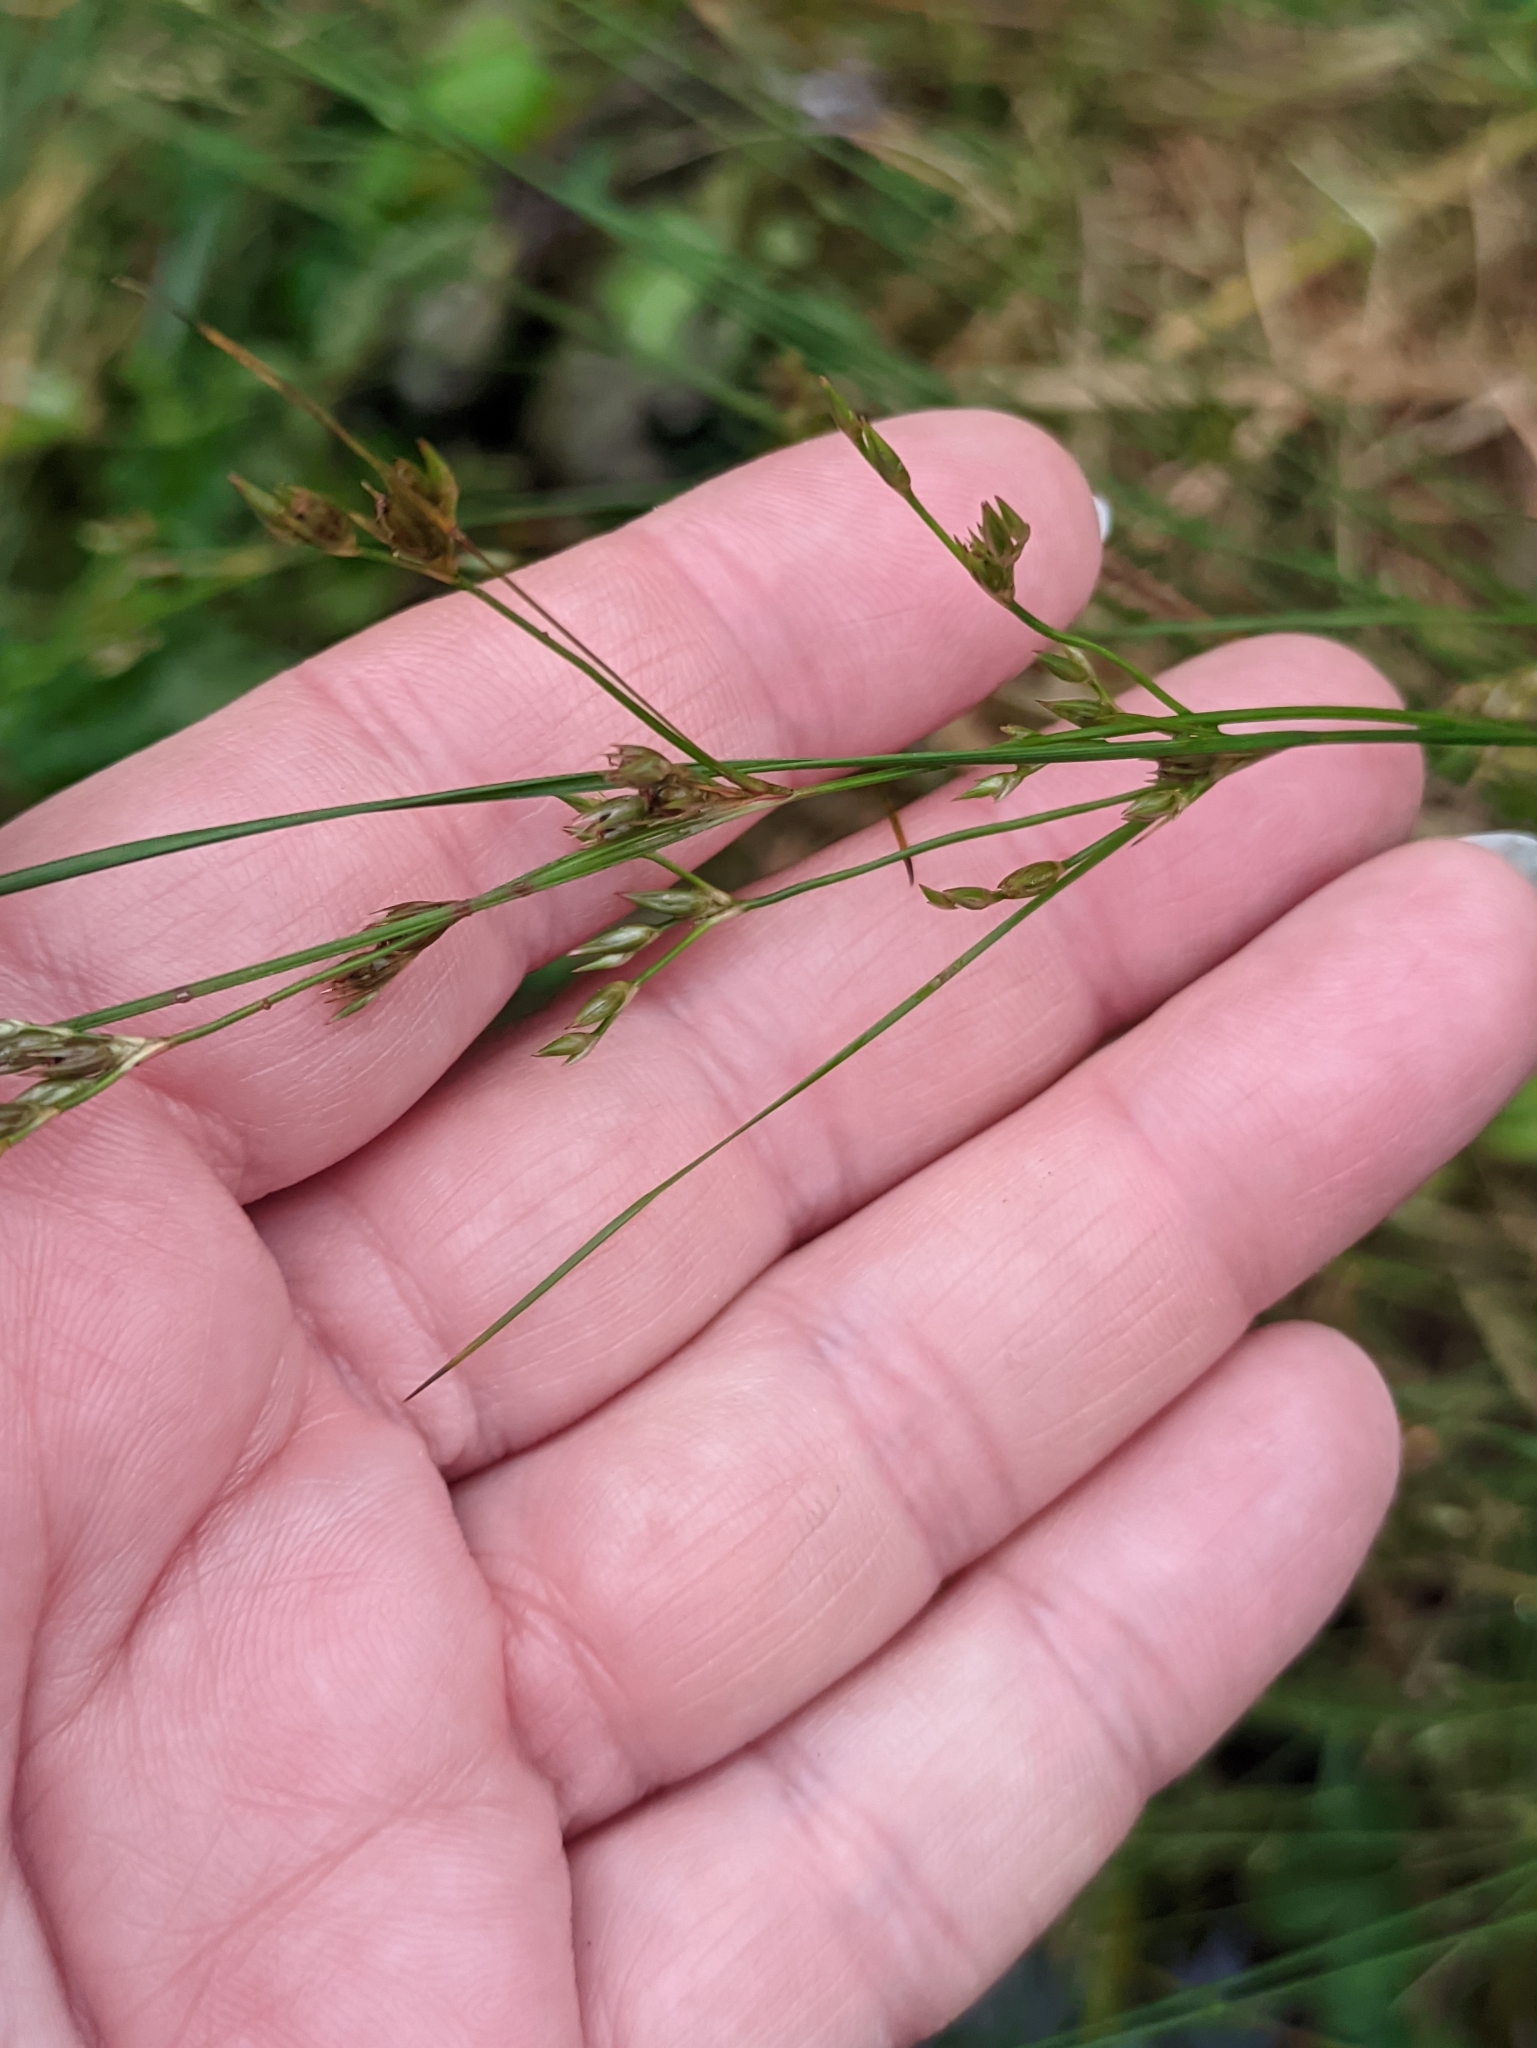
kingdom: Plantae
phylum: Tracheophyta
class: Liliopsida
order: Poales
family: Juncaceae
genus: Juncus
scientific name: Juncus tenuis
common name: Slender rush
